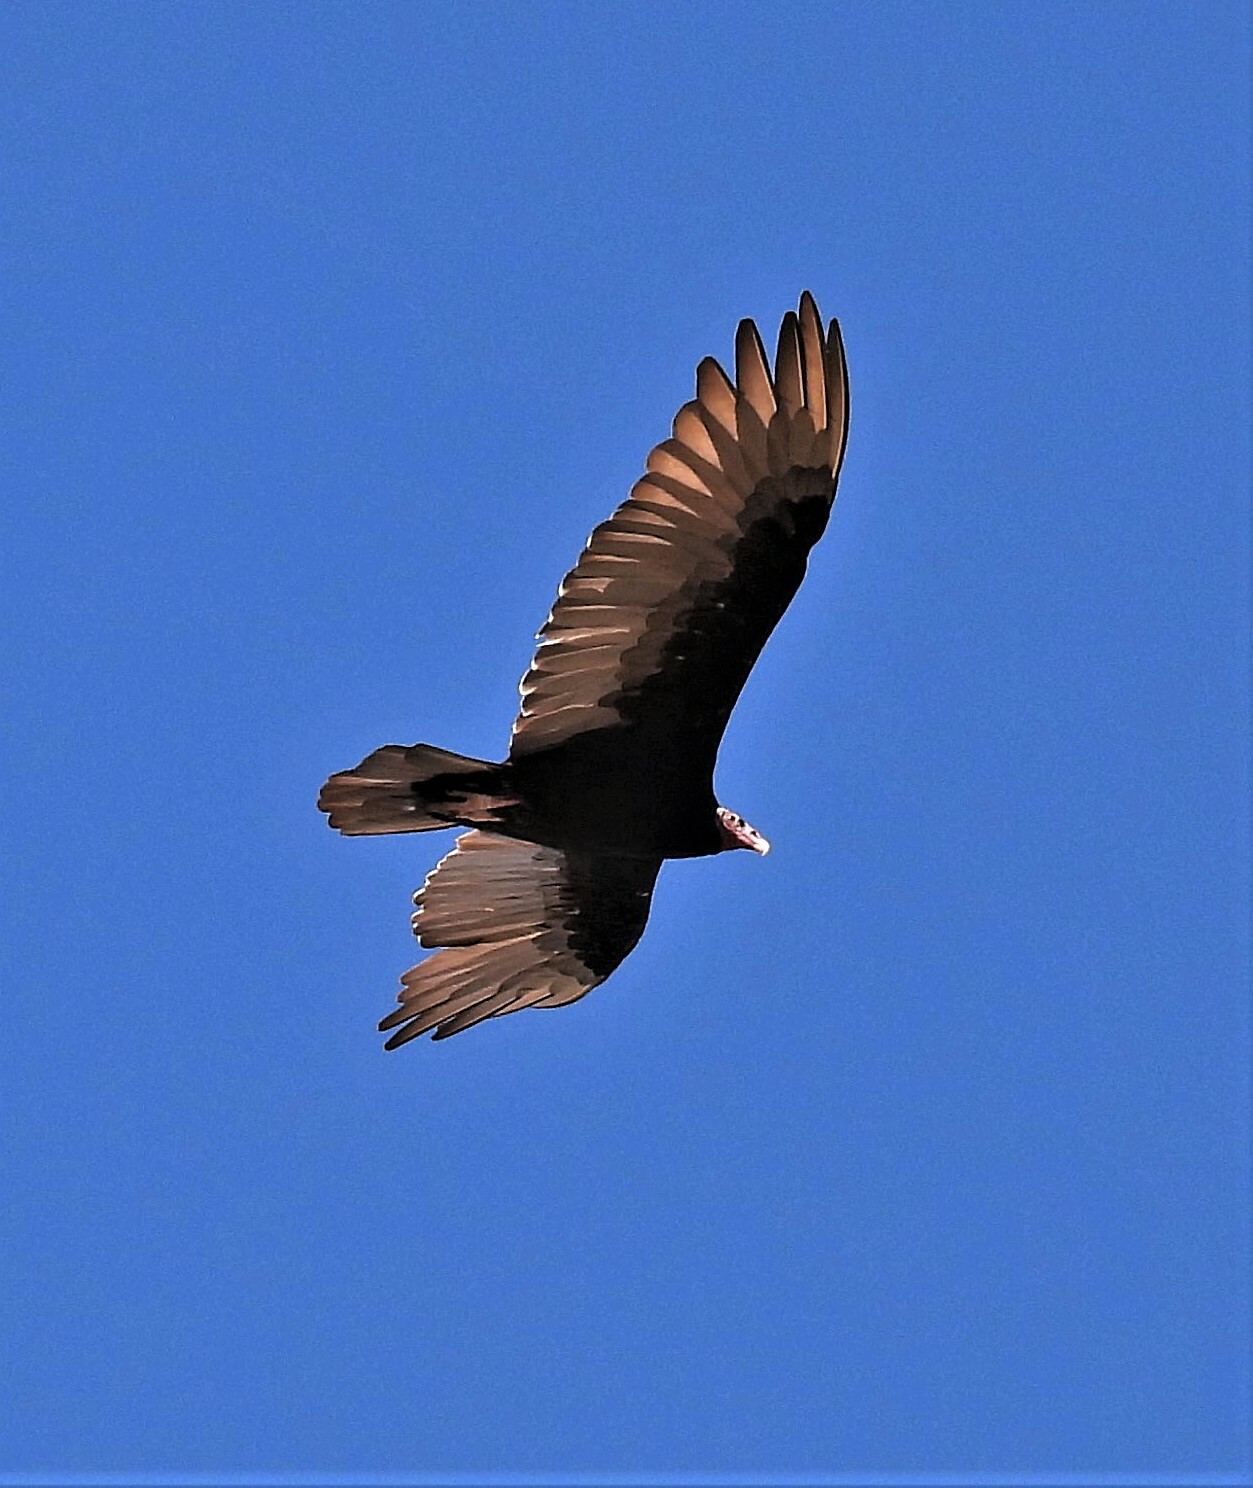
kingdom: Animalia
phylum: Chordata
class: Aves
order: Accipitriformes
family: Cathartidae
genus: Cathartes
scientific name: Cathartes aura
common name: Turkey vulture
